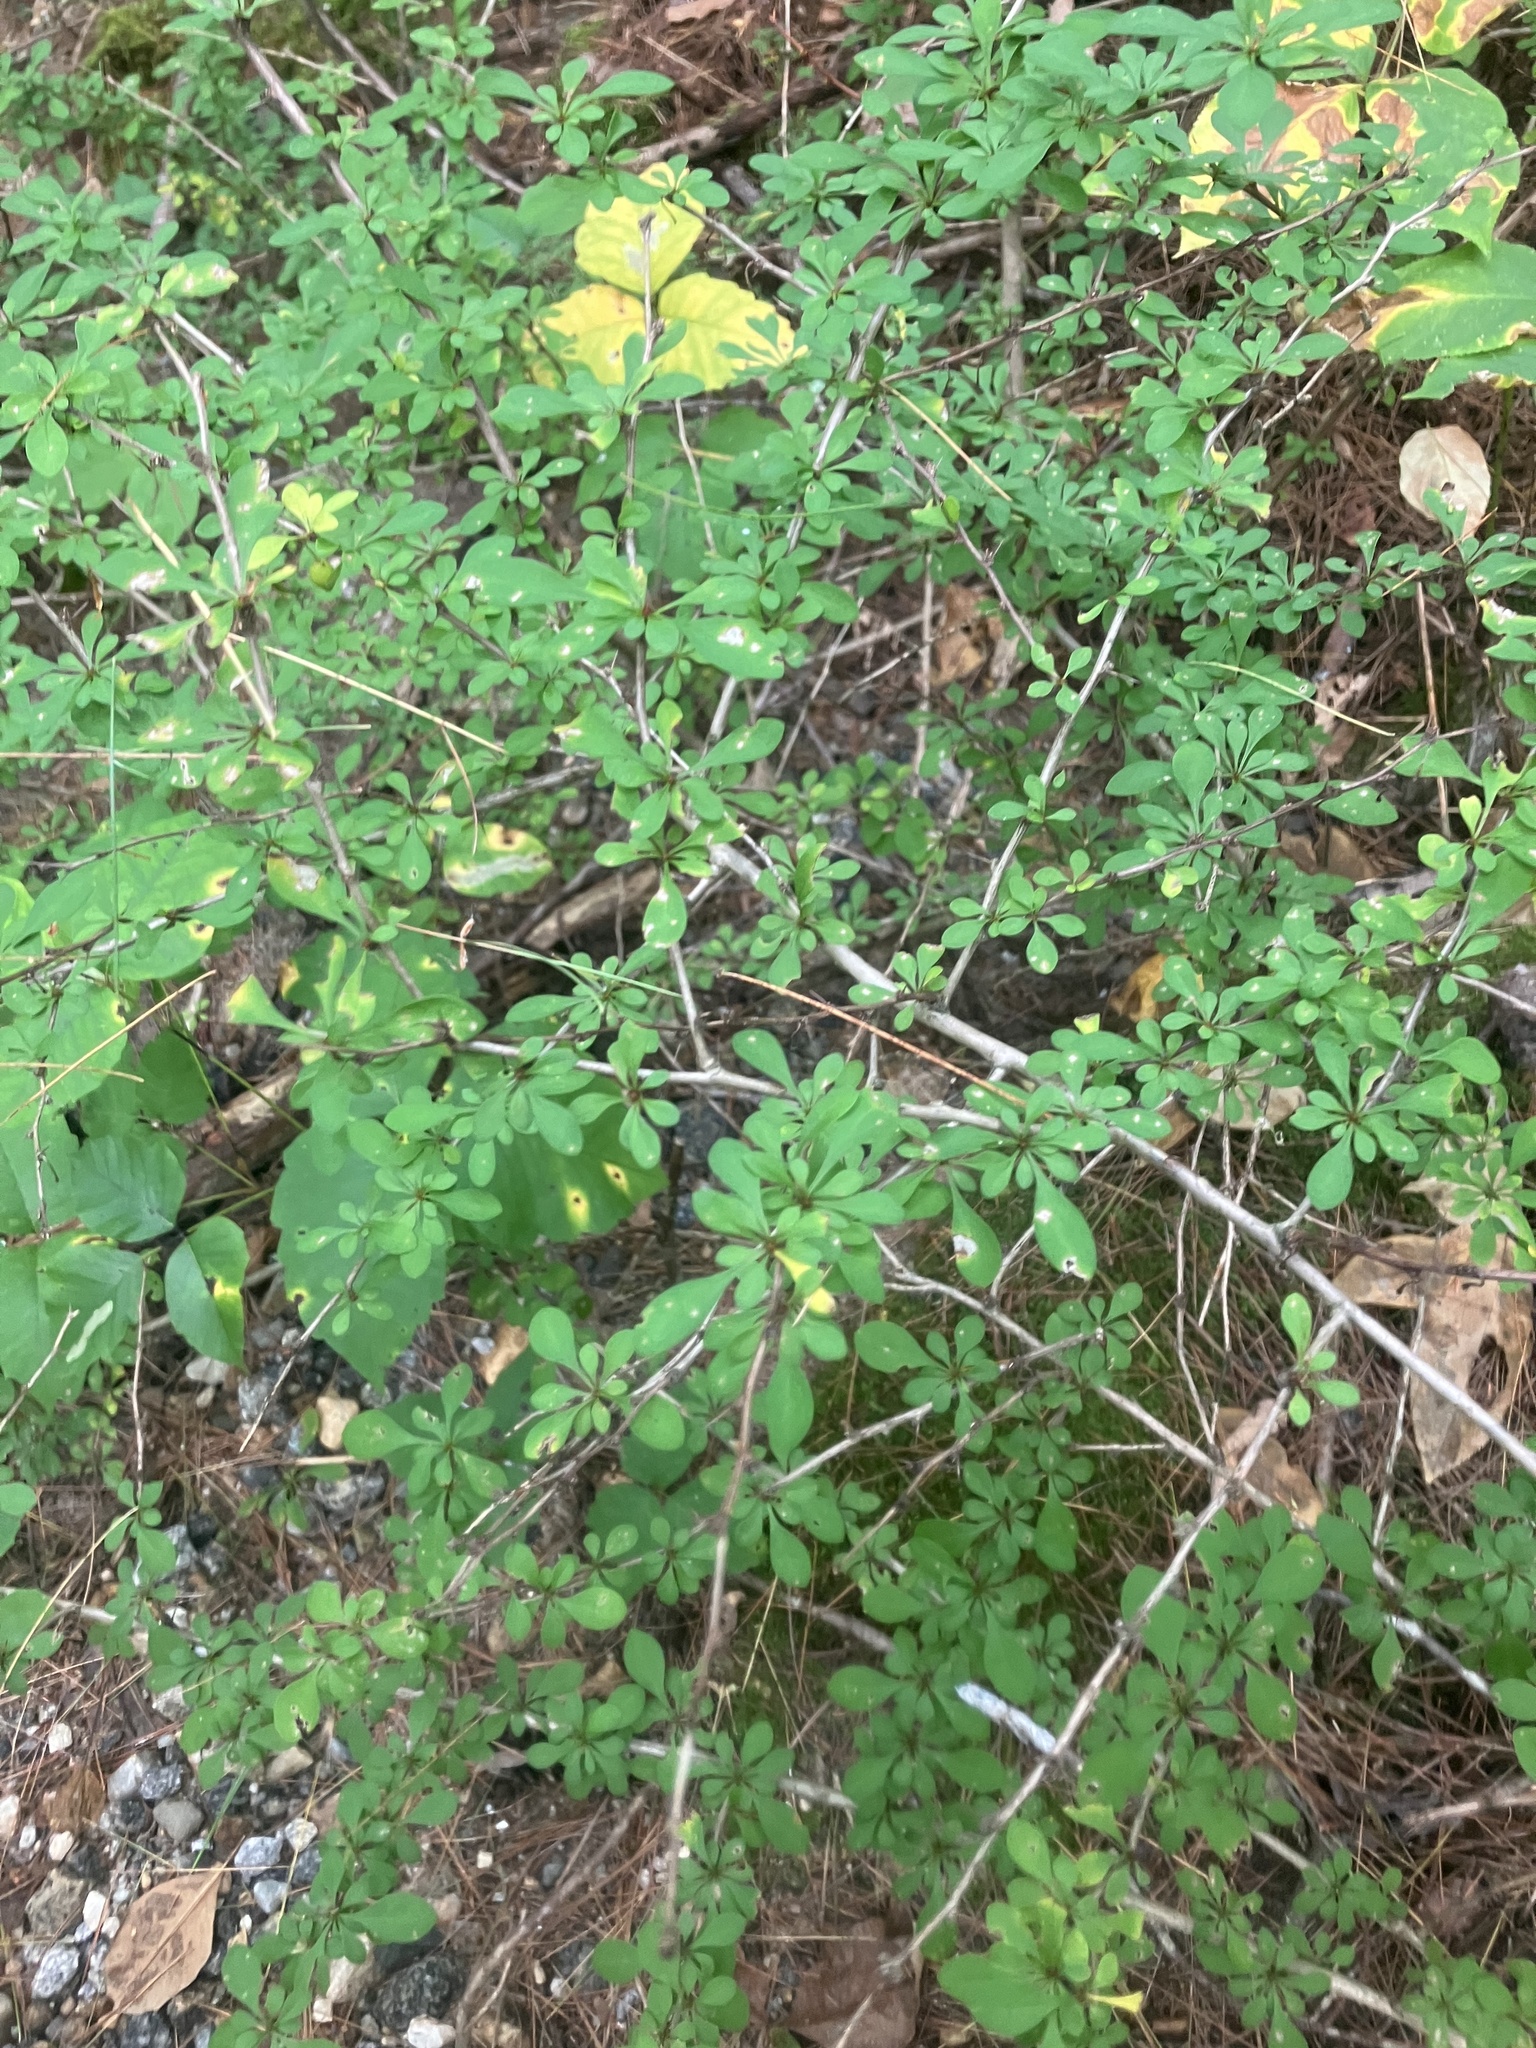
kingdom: Plantae
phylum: Tracheophyta
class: Magnoliopsida
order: Ranunculales
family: Berberidaceae
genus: Berberis
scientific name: Berberis thunbergii
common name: Japanese barberry
